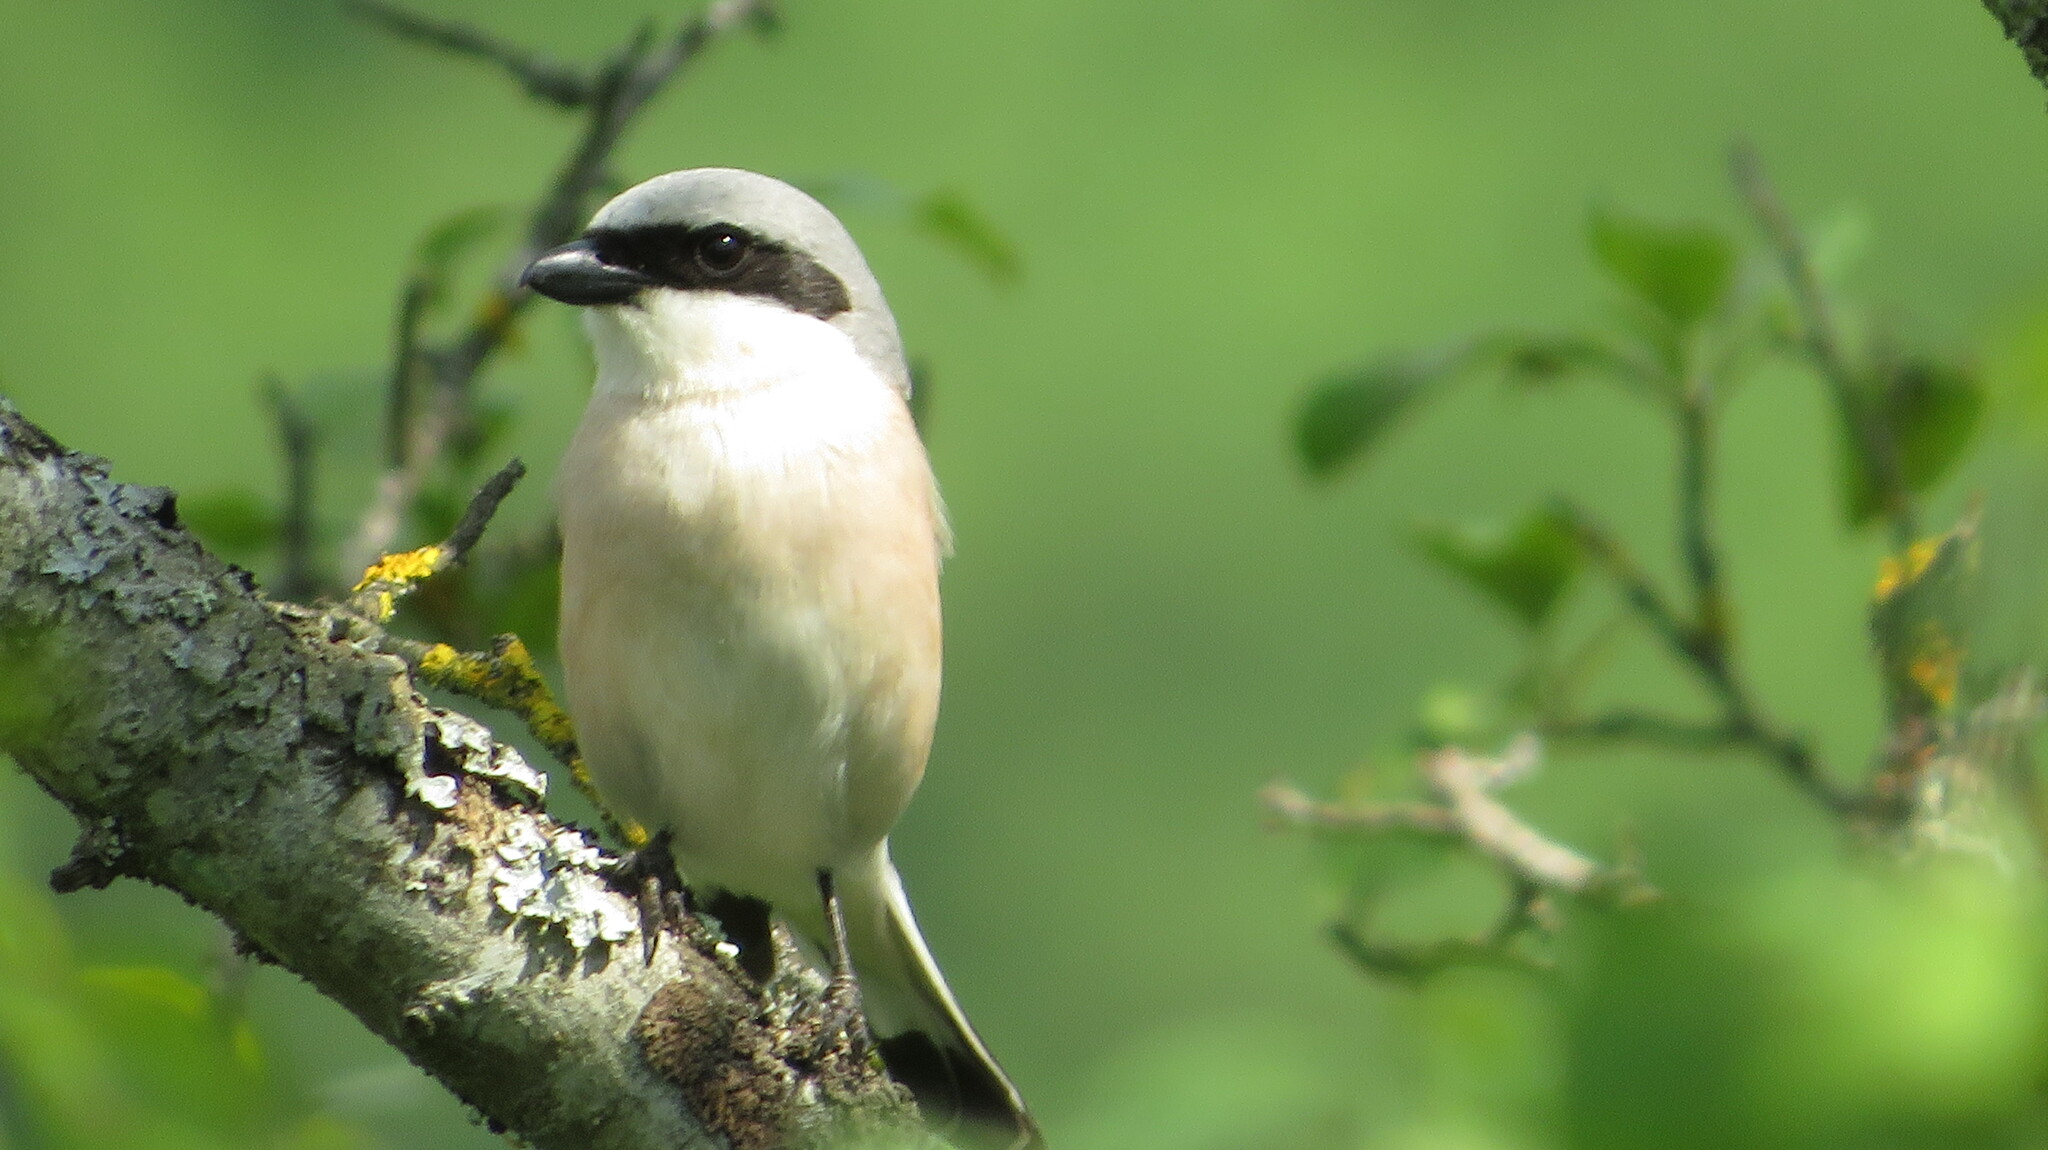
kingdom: Animalia
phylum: Chordata
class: Aves
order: Passeriformes
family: Laniidae
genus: Lanius
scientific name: Lanius collurio
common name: Red-backed shrike
